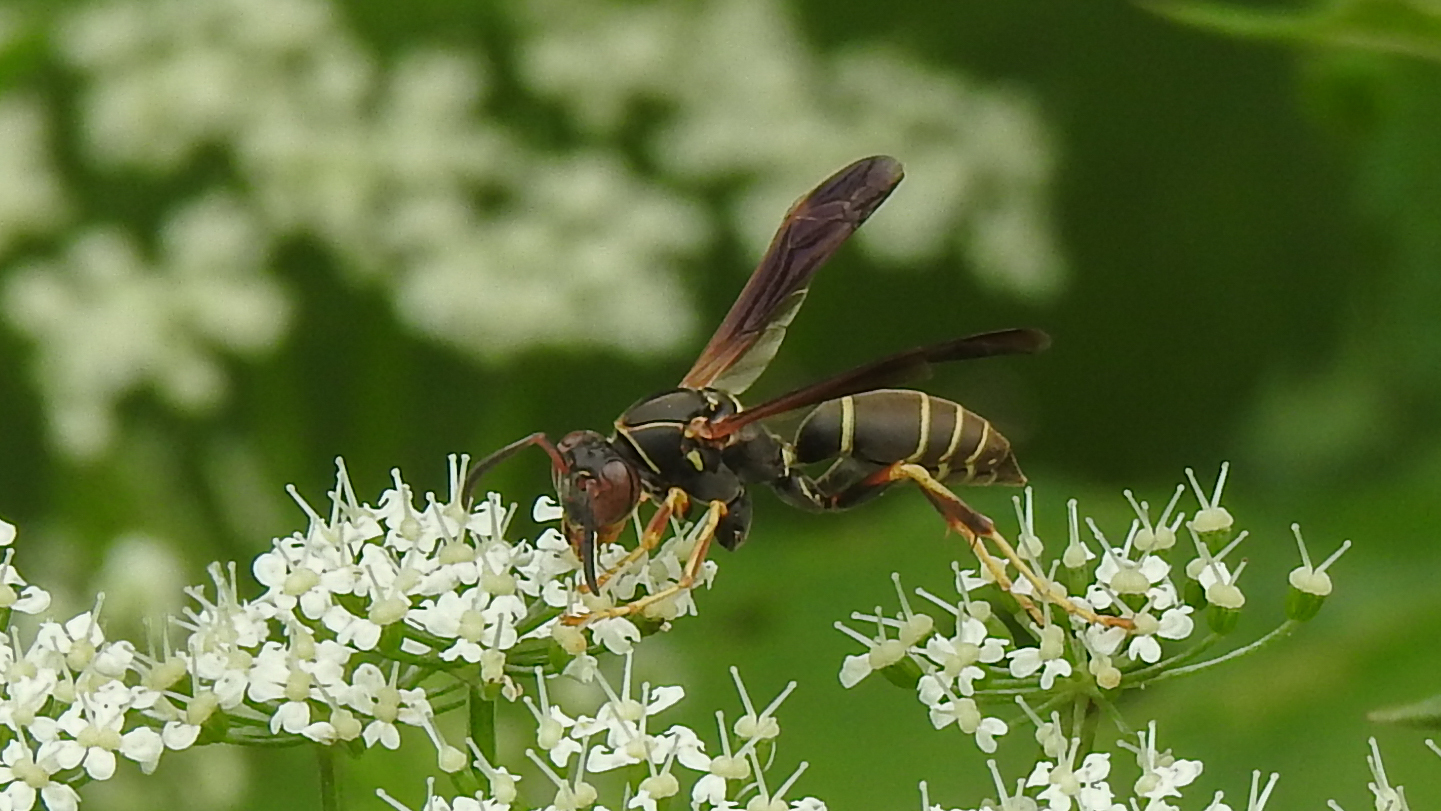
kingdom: Animalia
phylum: Arthropoda
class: Insecta
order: Hymenoptera
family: Eumenidae
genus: Polistes
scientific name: Polistes fuscatus
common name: Dark paper wasp
